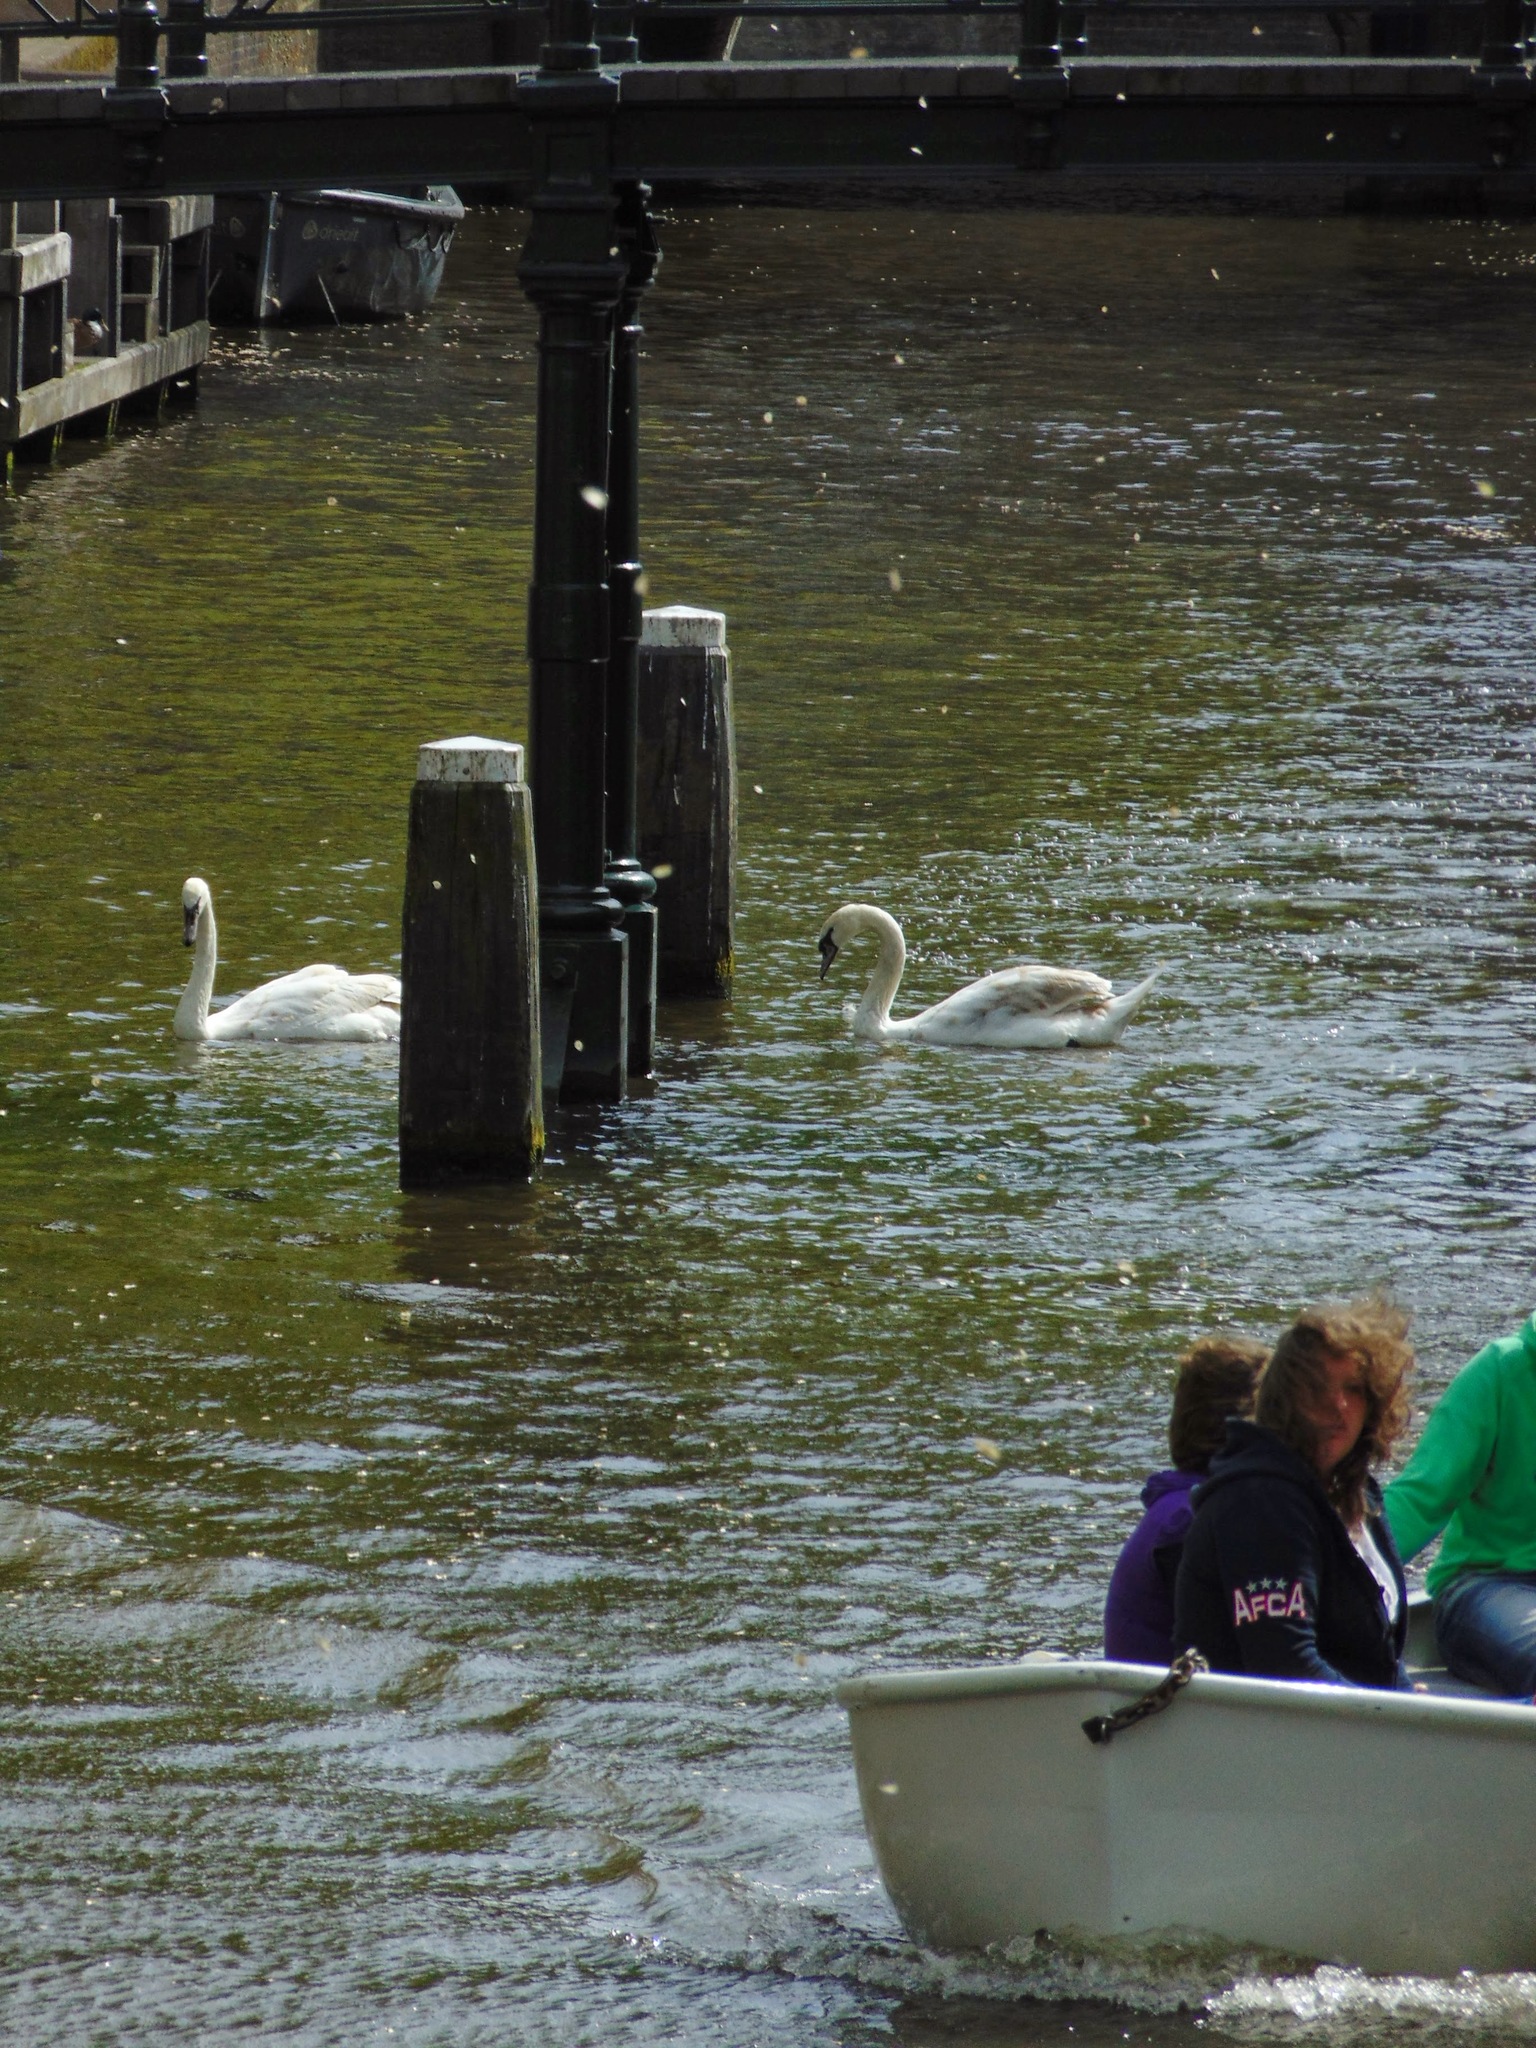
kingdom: Animalia
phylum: Chordata
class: Aves
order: Anseriformes
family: Anatidae
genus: Cygnus
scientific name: Cygnus olor
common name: Mute swan
